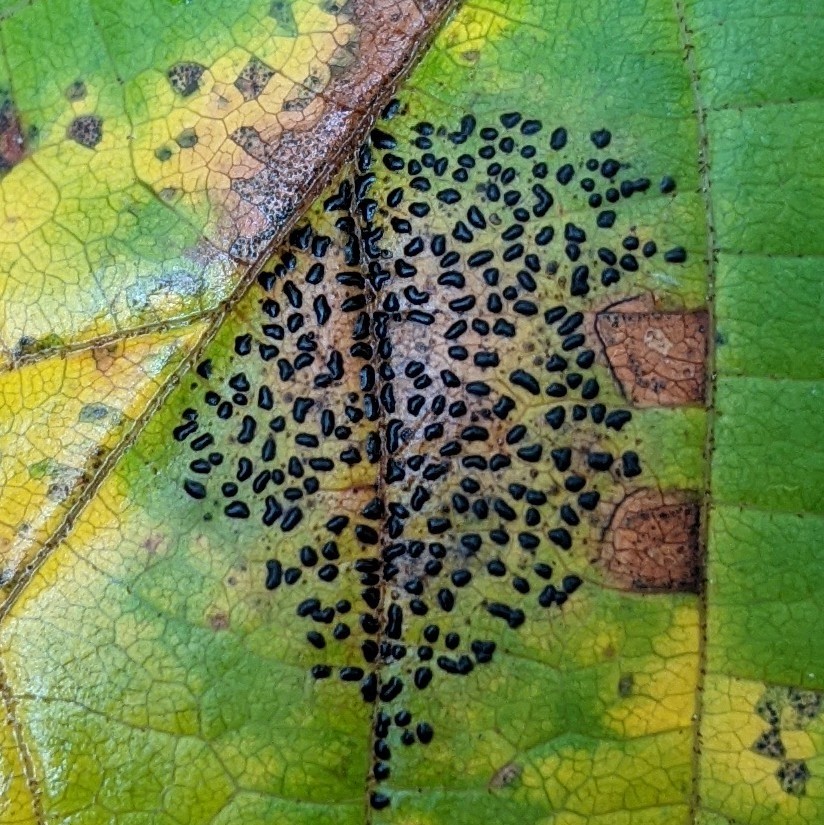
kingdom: Fungi
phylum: Ascomycota
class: Leotiomycetes
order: Rhytismatales
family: Rhytismataceae
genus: Rhytisma
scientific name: Rhytisma punctatum
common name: Speckled tar spot
